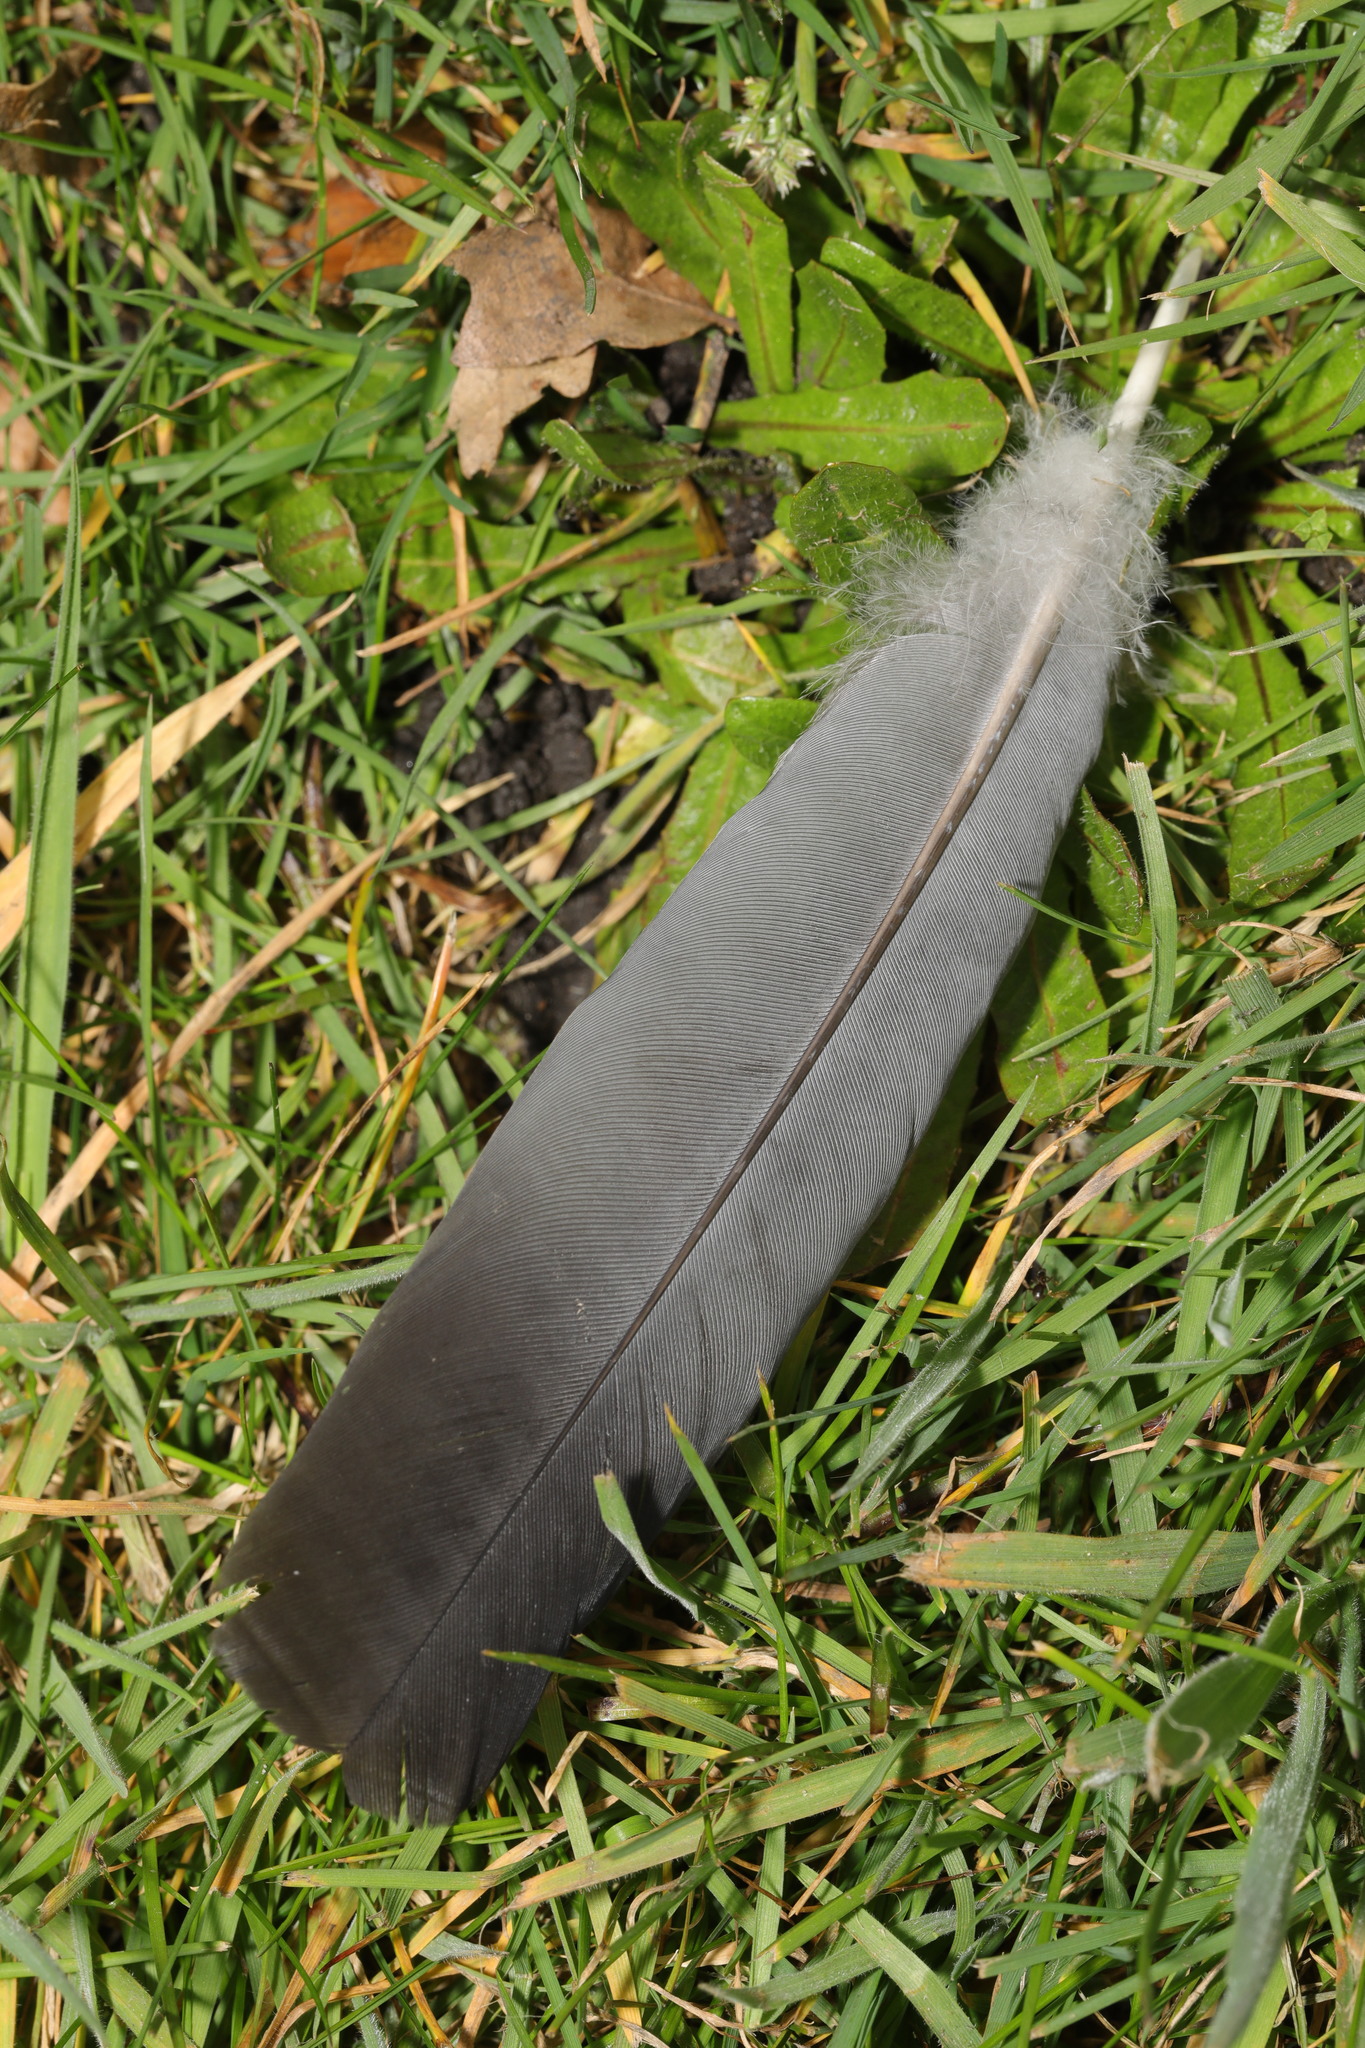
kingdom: Animalia
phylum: Chordata
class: Aves
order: Columbiformes
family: Columbidae
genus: Columba
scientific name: Columba palumbus
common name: Common wood pigeon
